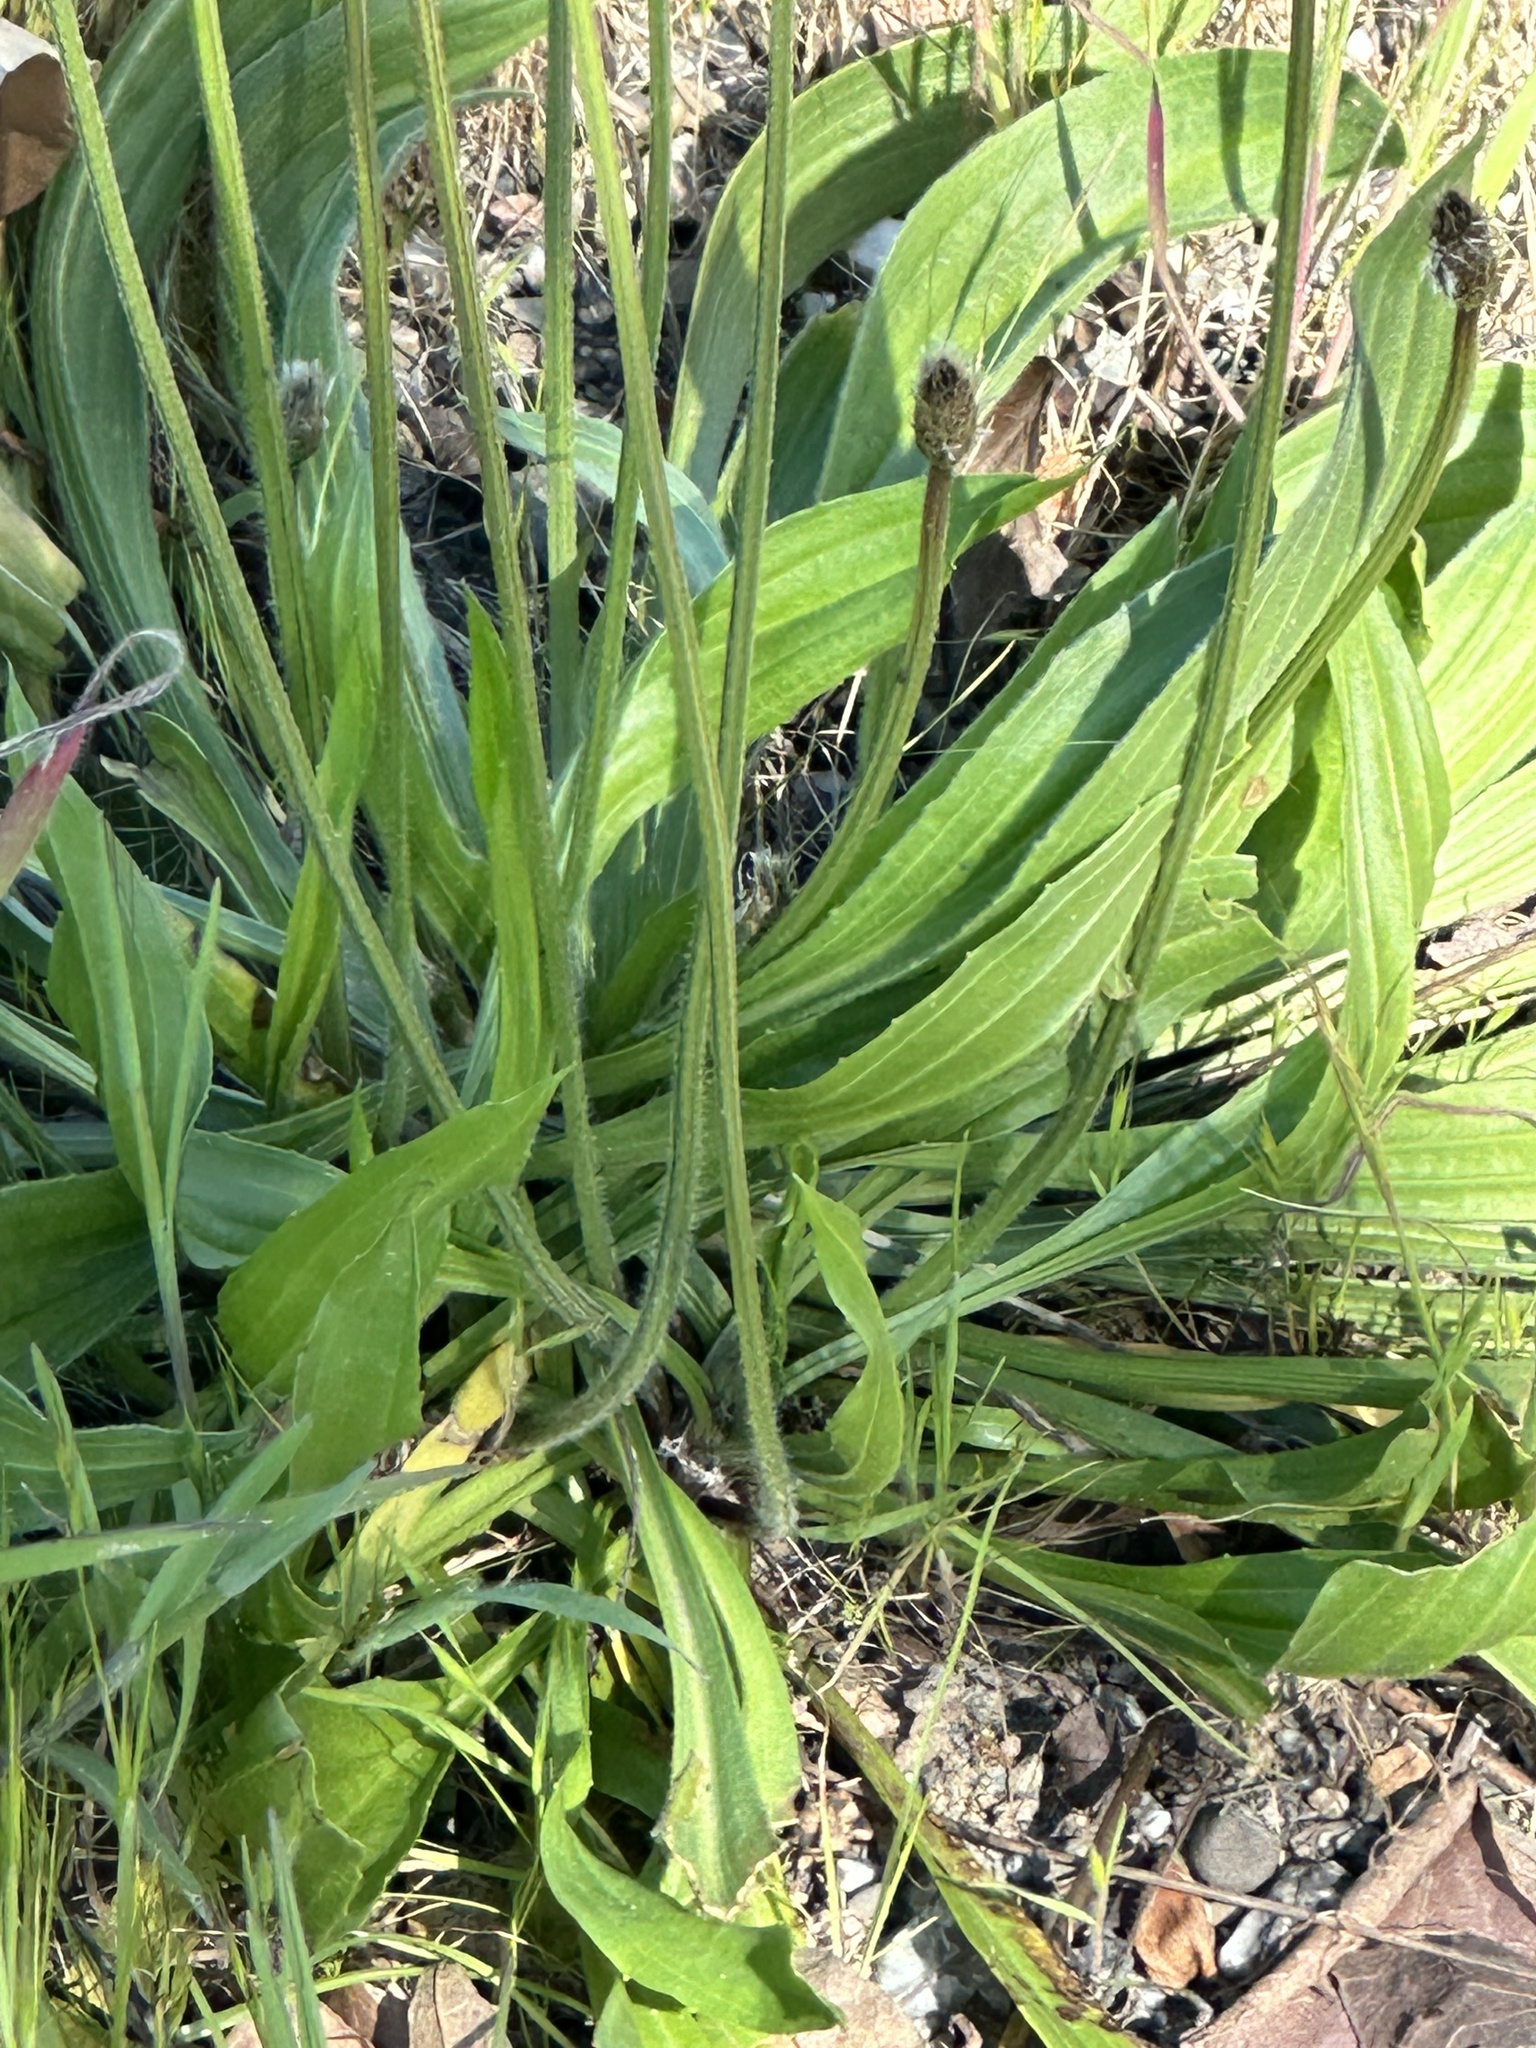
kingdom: Plantae
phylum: Tracheophyta
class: Magnoliopsida
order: Lamiales
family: Plantaginaceae
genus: Plantago
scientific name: Plantago lanceolata
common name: Ribwort plantain
